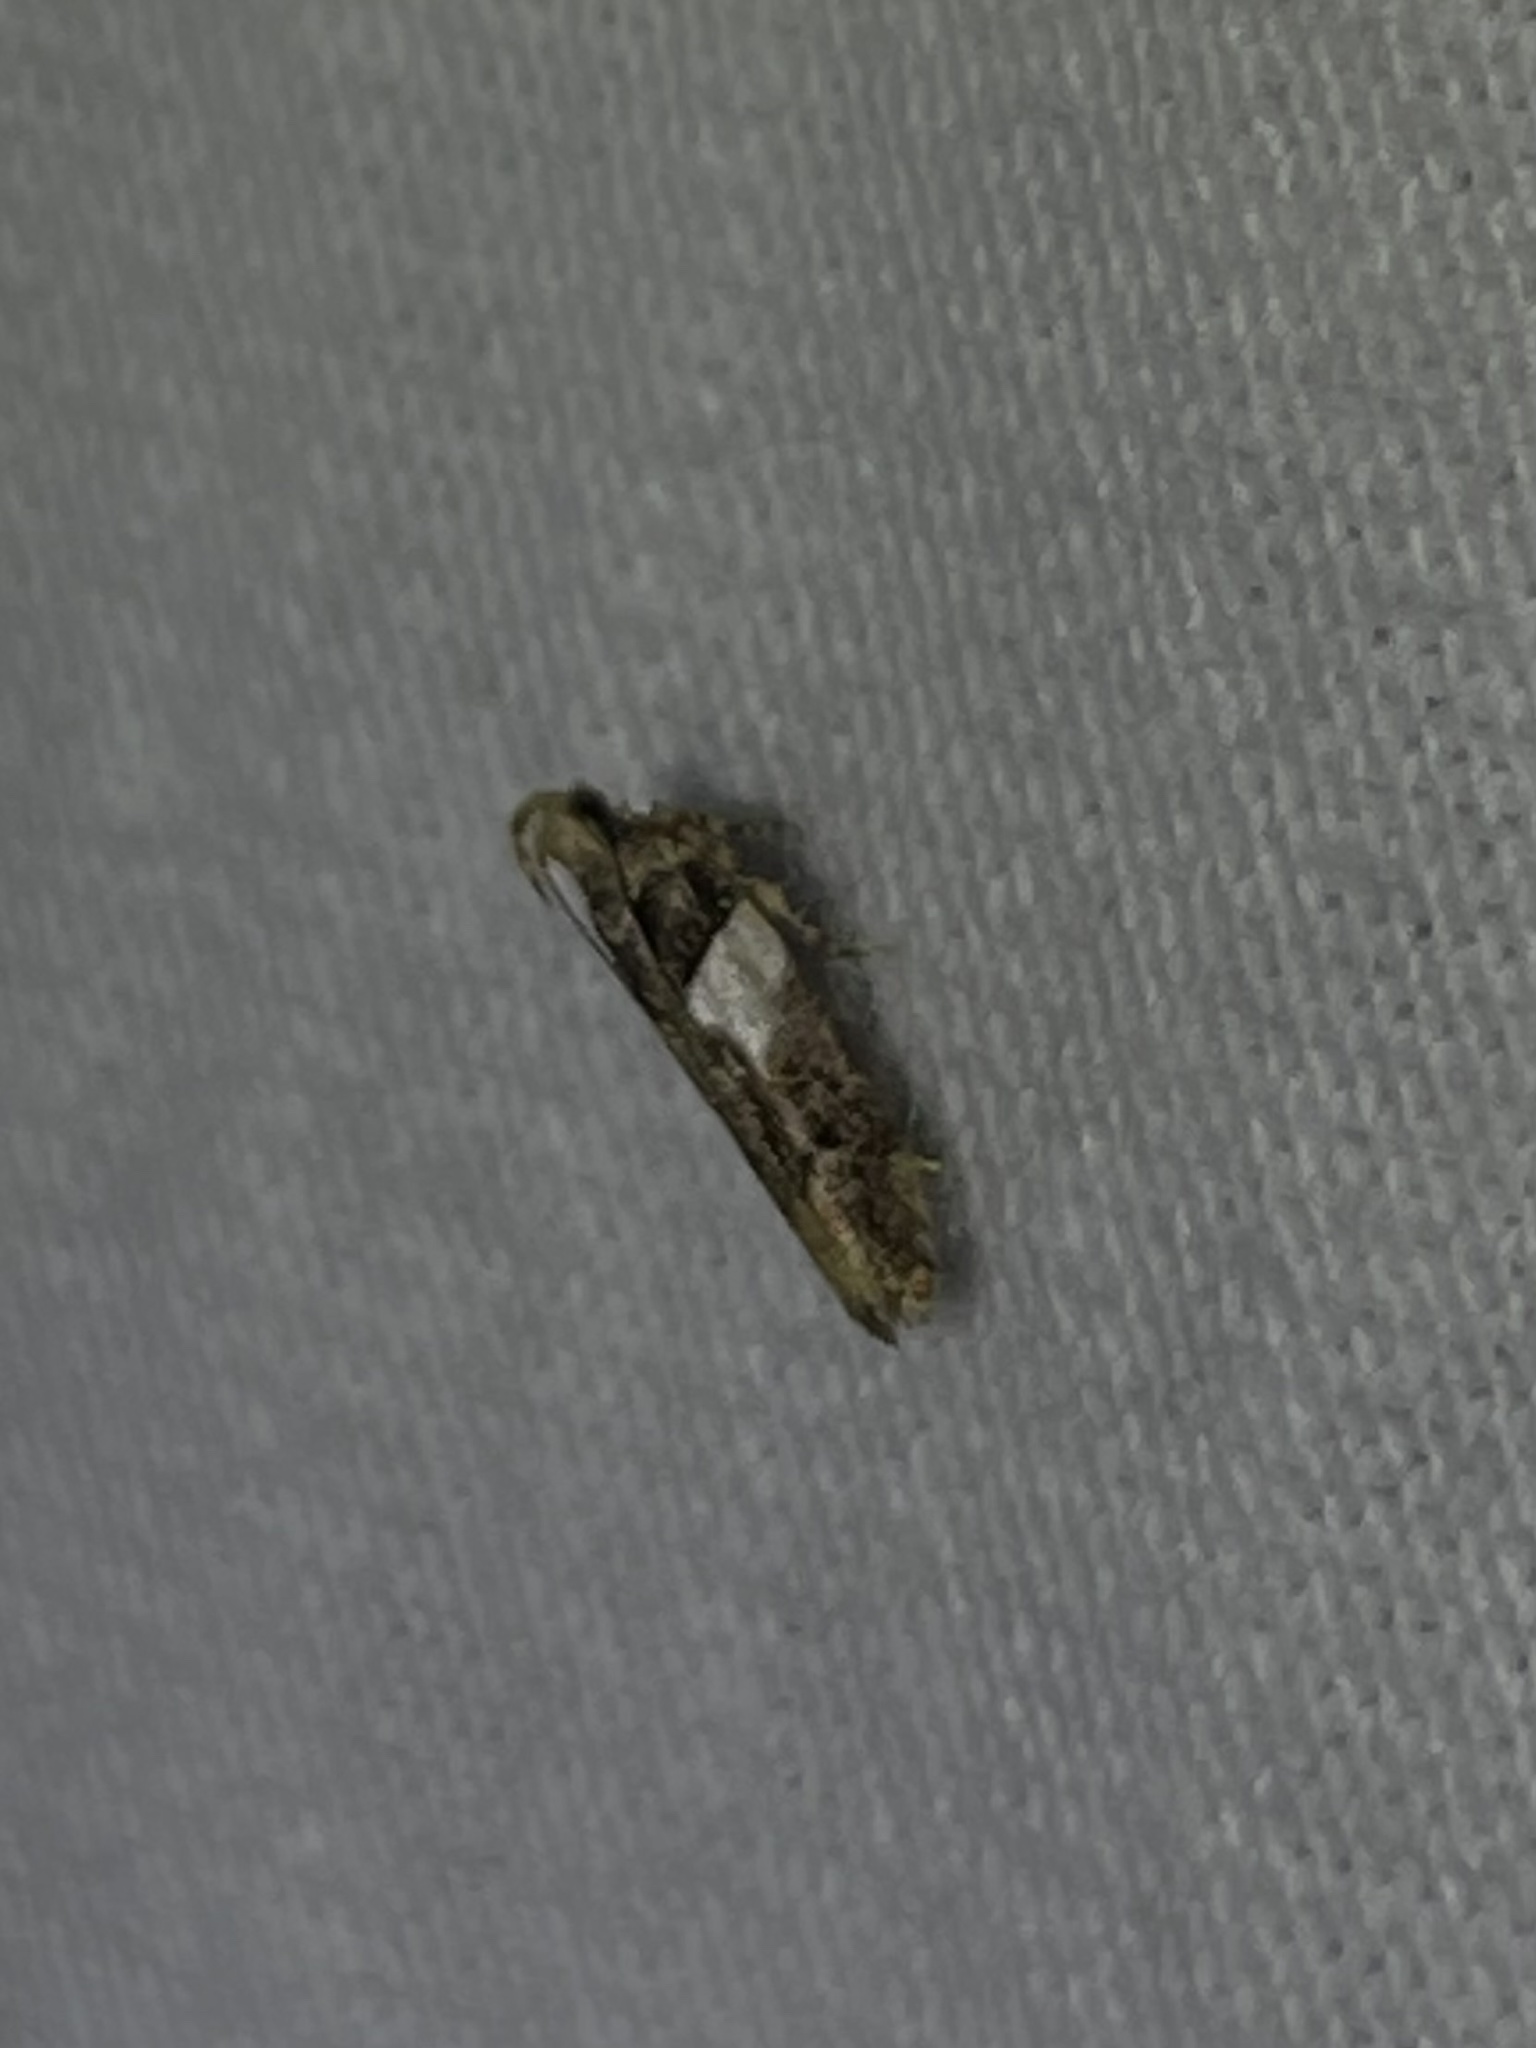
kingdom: Animalia
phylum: Arthropoda
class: Insecta
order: Lepidoptera
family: Gelechiidae
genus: Friseria
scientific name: Friseria acaciella
